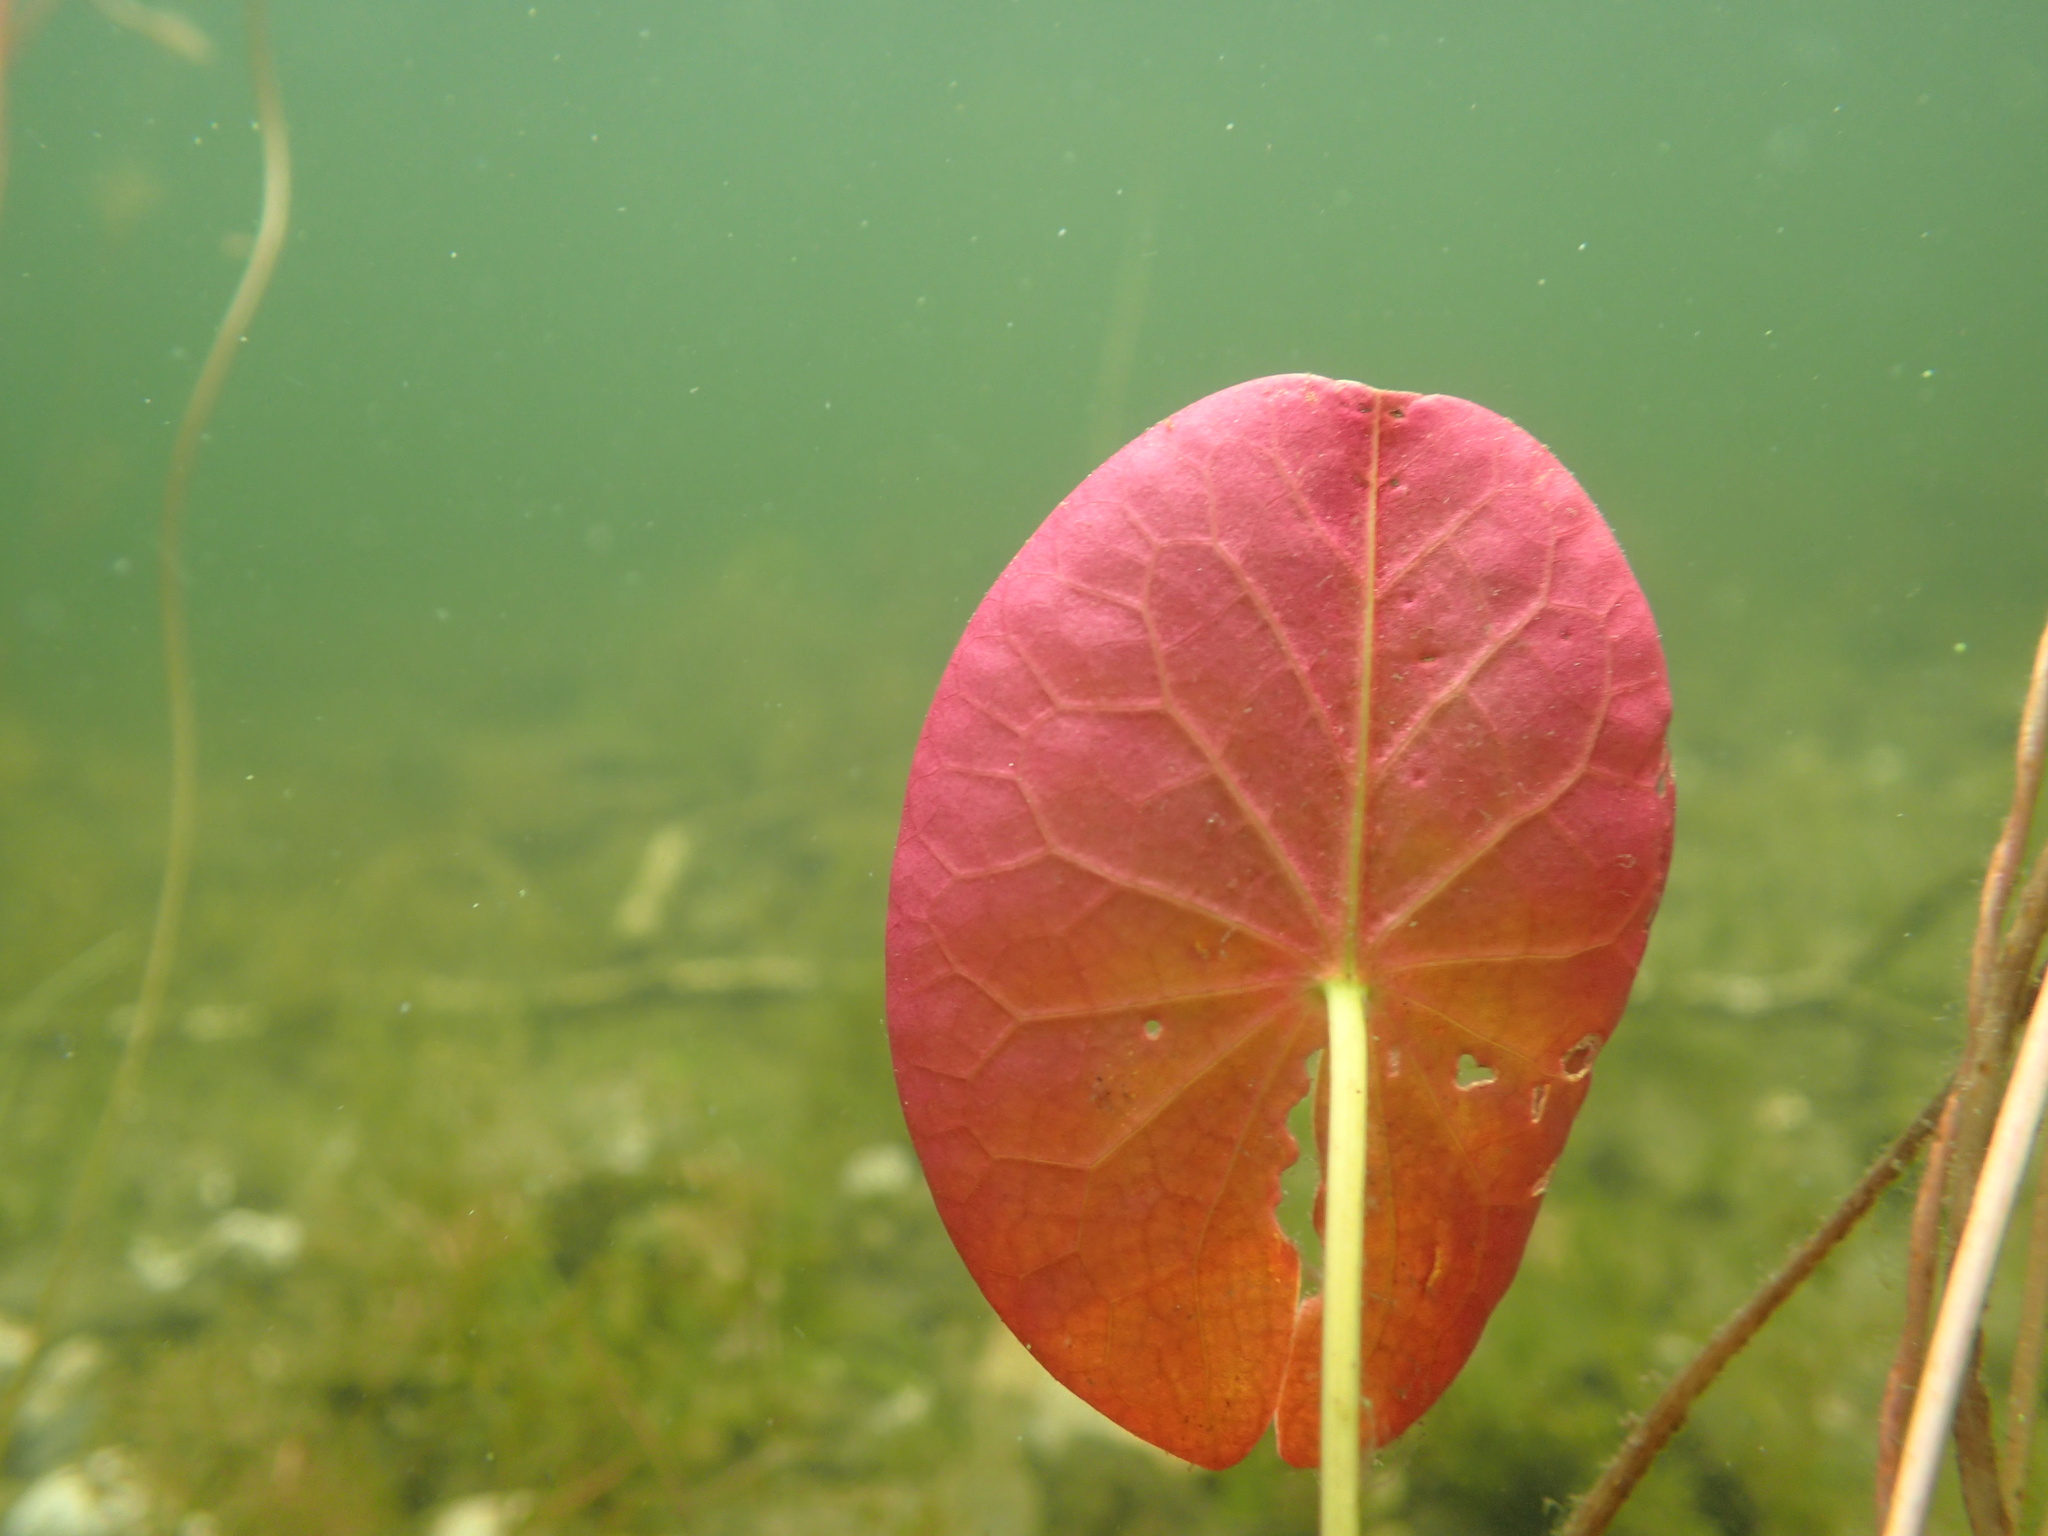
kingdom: Plantae
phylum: Tracheophyta
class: Magnoliopsida
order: Nymphaeales
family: Cabombaceae
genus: Brasenia
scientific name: Brasenia schreberi
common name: Water-shield
